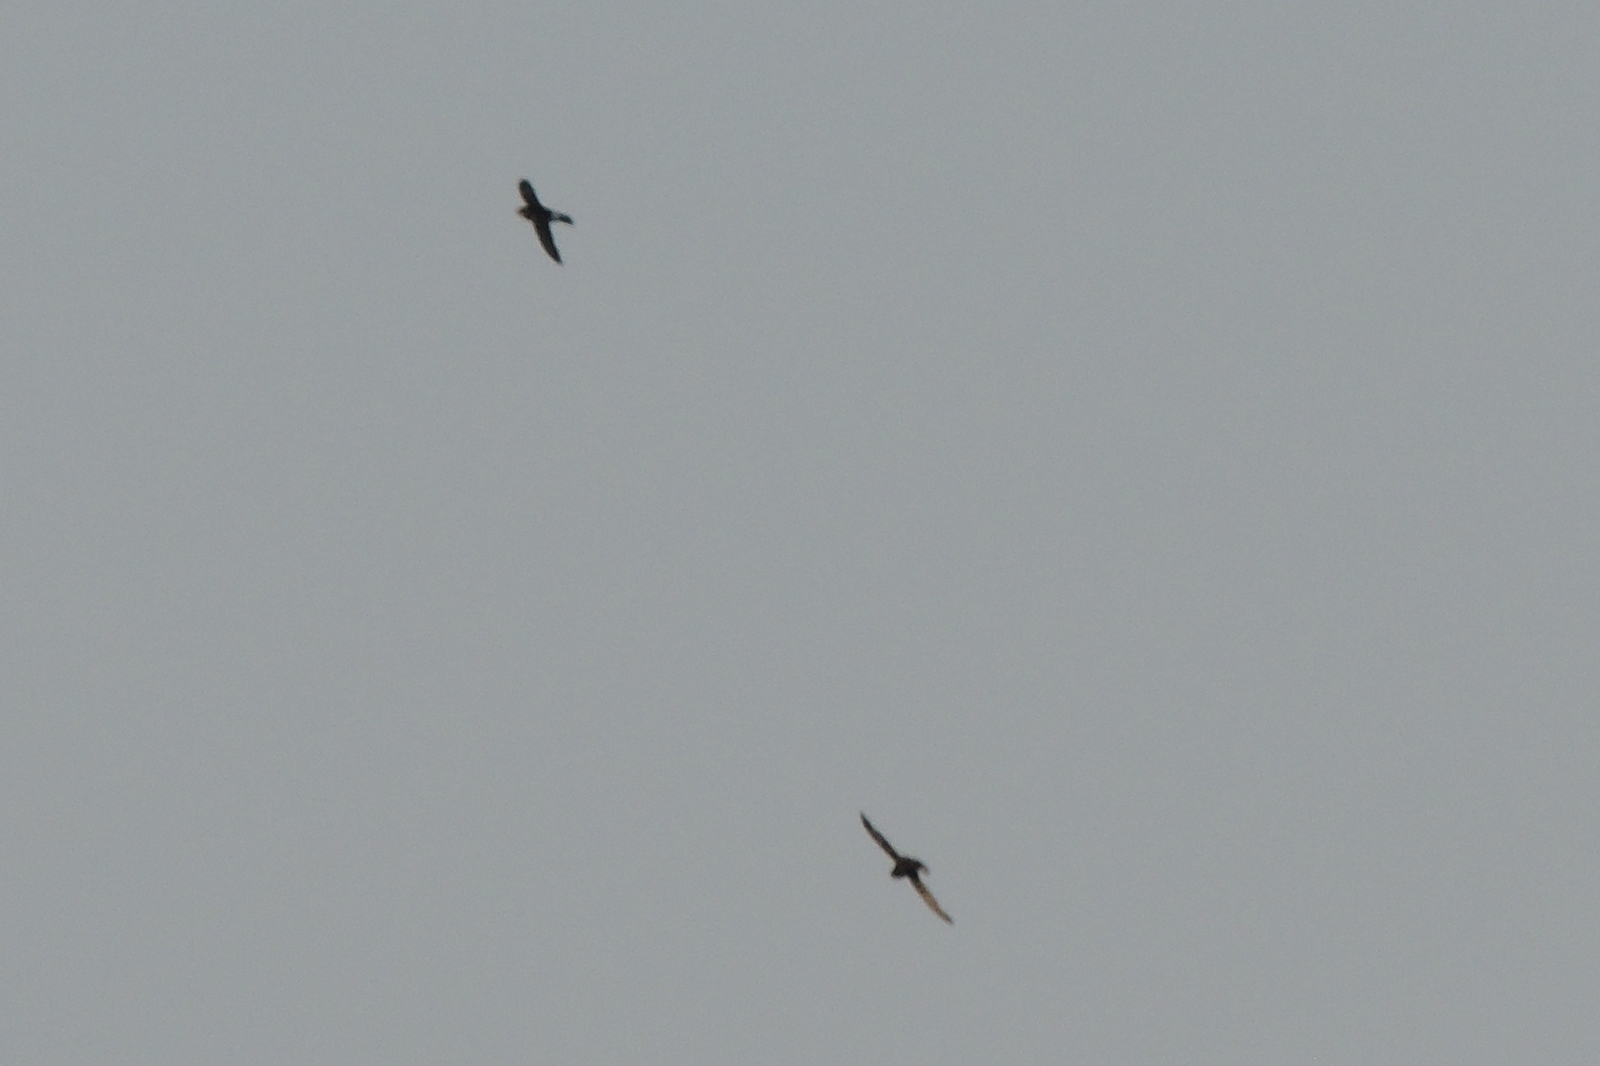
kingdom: Animalia
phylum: Chordata
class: Aves
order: Apodiformes
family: Apodidae
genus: Apus
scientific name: Apus affinis
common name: Little swift
